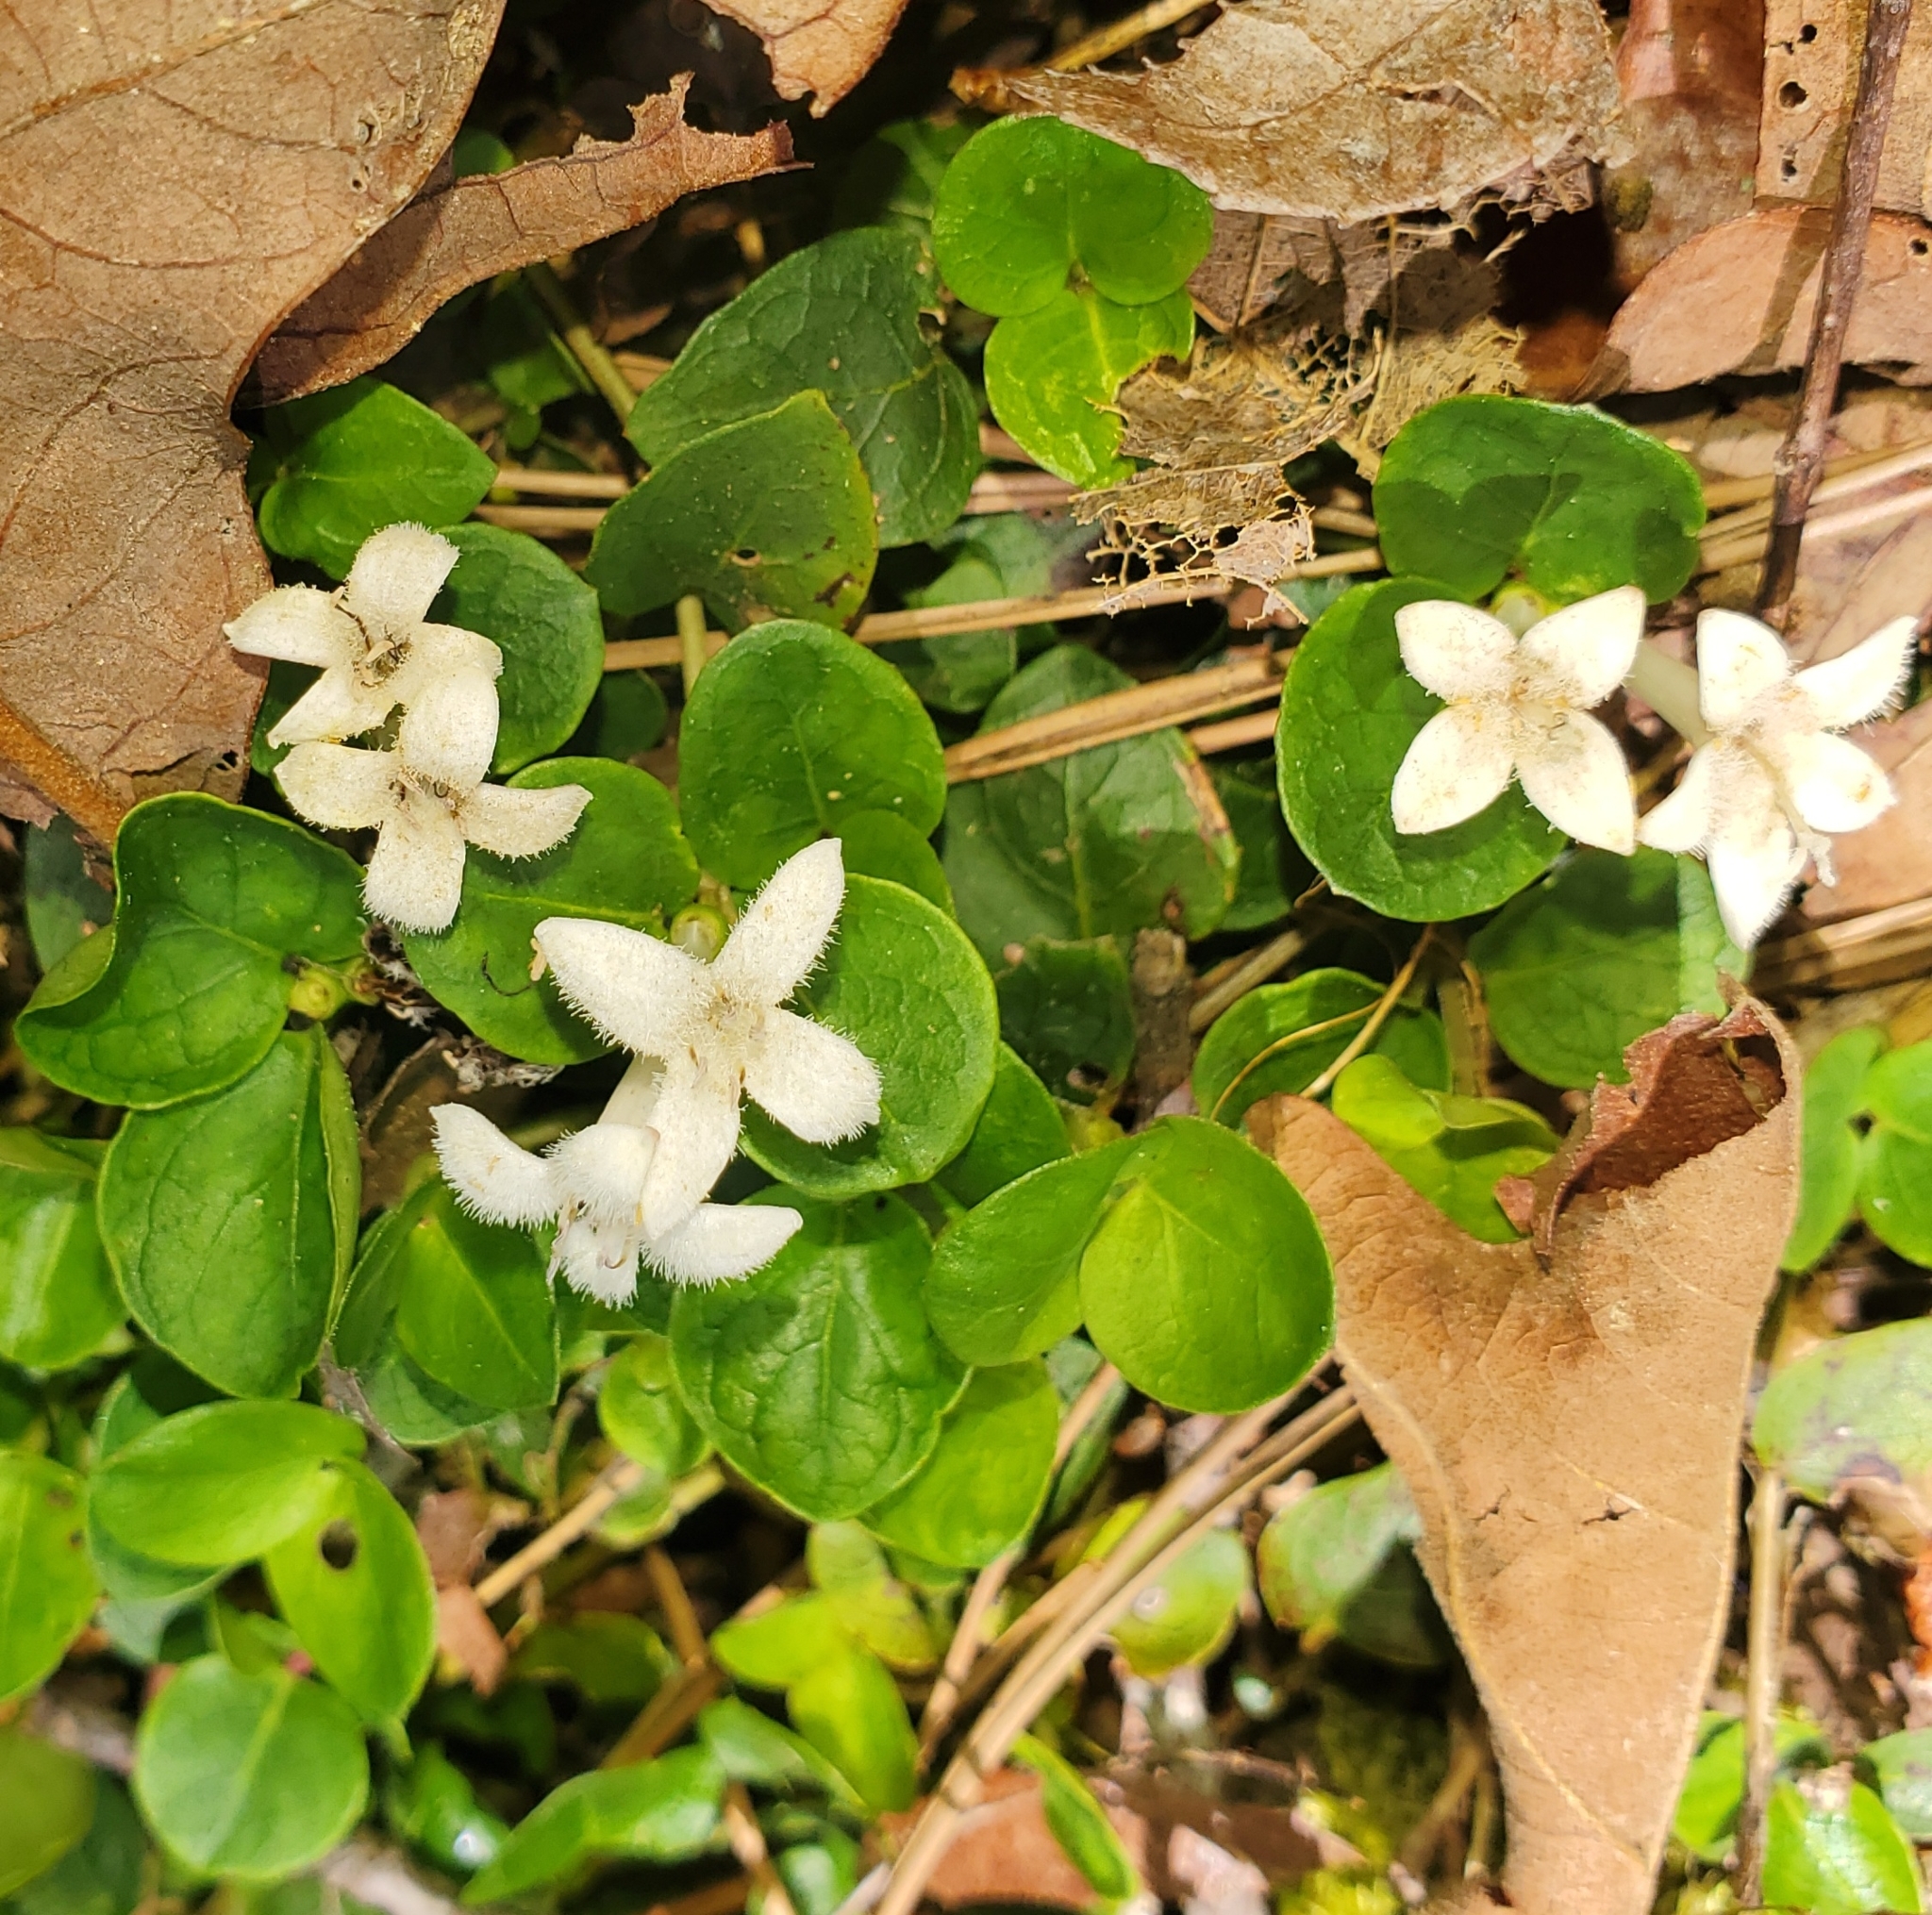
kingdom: Plantae
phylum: Tracheophyta
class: Magnoliopsida
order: Gentianales
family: Rubiaceae
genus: Mitchella
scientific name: Mitchella repens
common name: Partridge-berry
